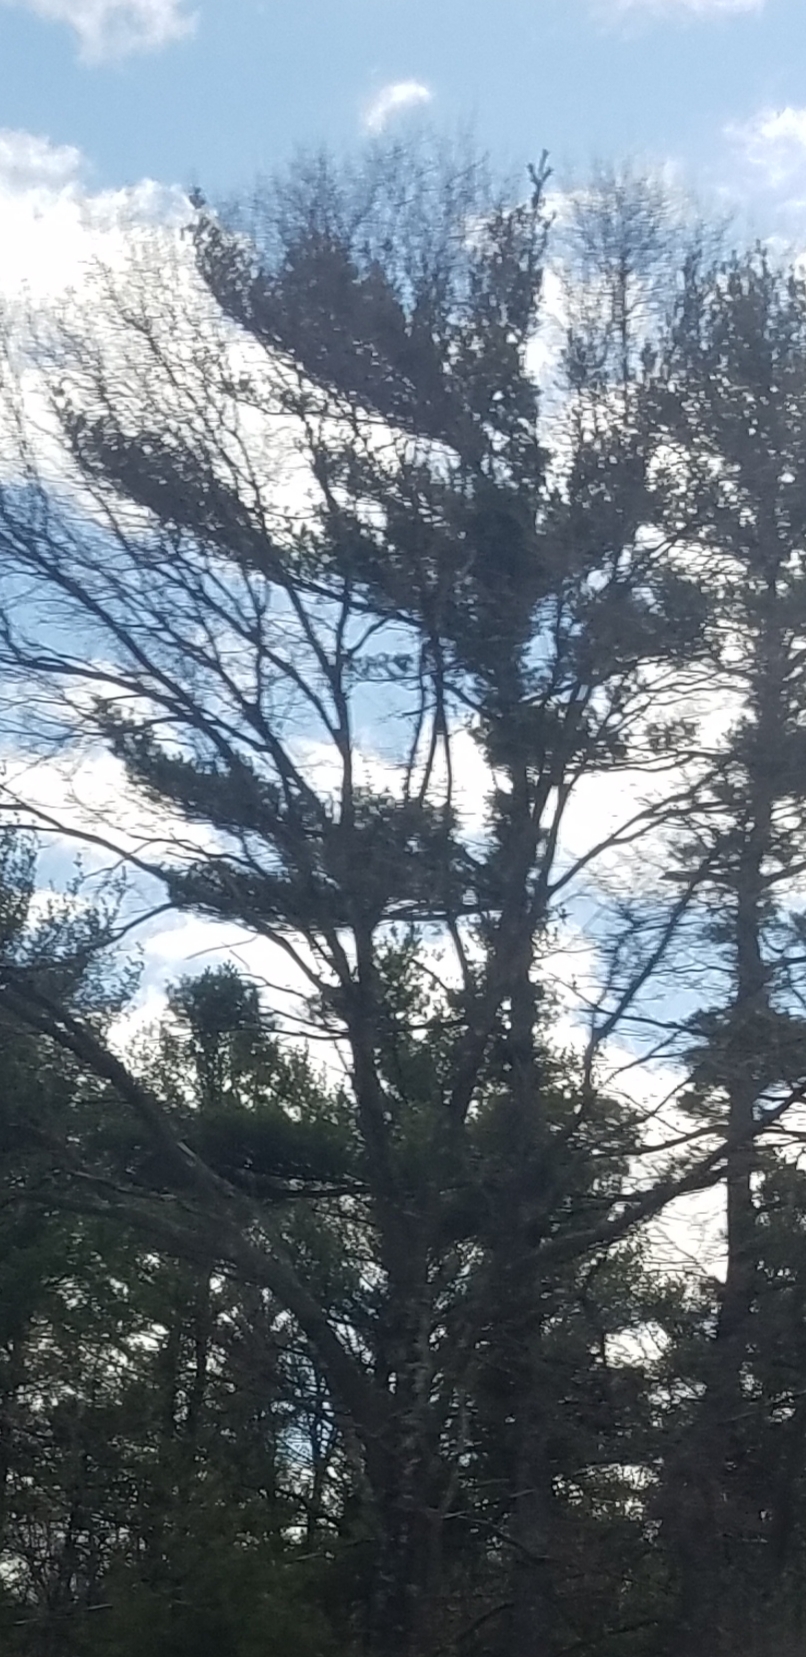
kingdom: Plantae
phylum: Tracheophyta
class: Pinopsida
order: Pinales
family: Pinaceae
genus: Pinus
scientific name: Pinus strobus
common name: Weymouth pine
